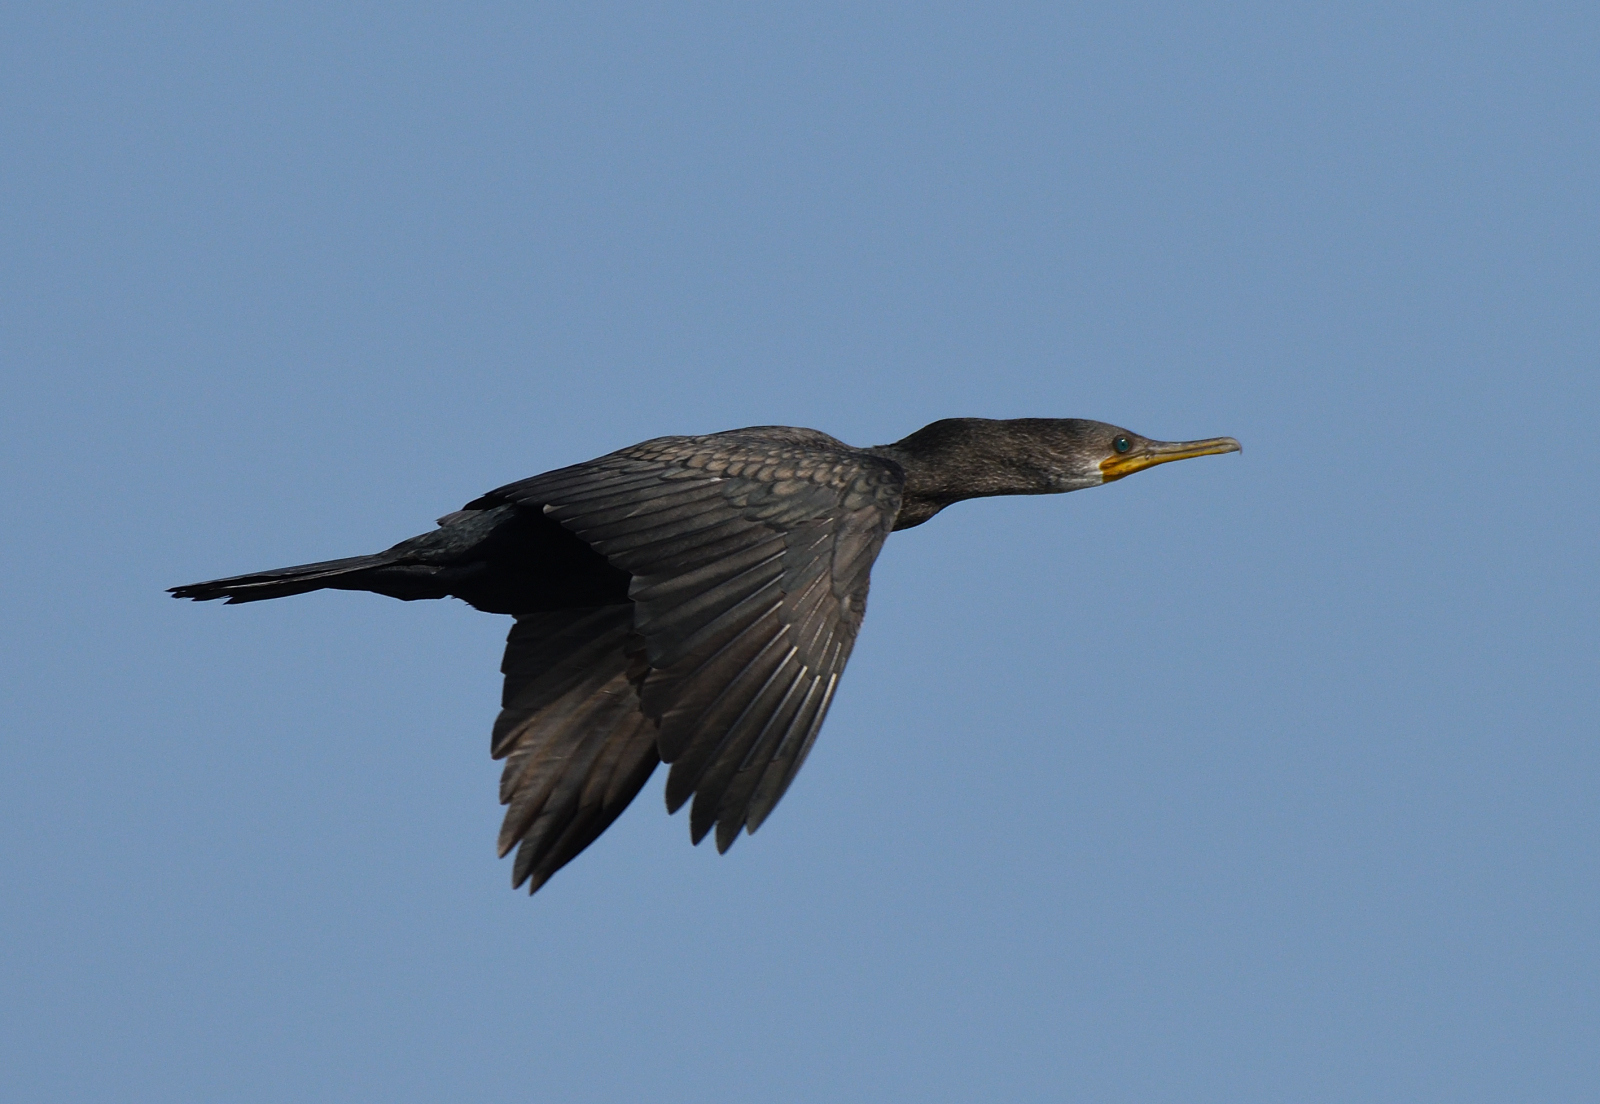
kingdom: Animalia
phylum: Chordata
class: Aves
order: Suliformes
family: Phalacrocoracidae
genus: Phalacrocorax
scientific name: Phalacrocorax fuscicollis
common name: Indian cormorant
